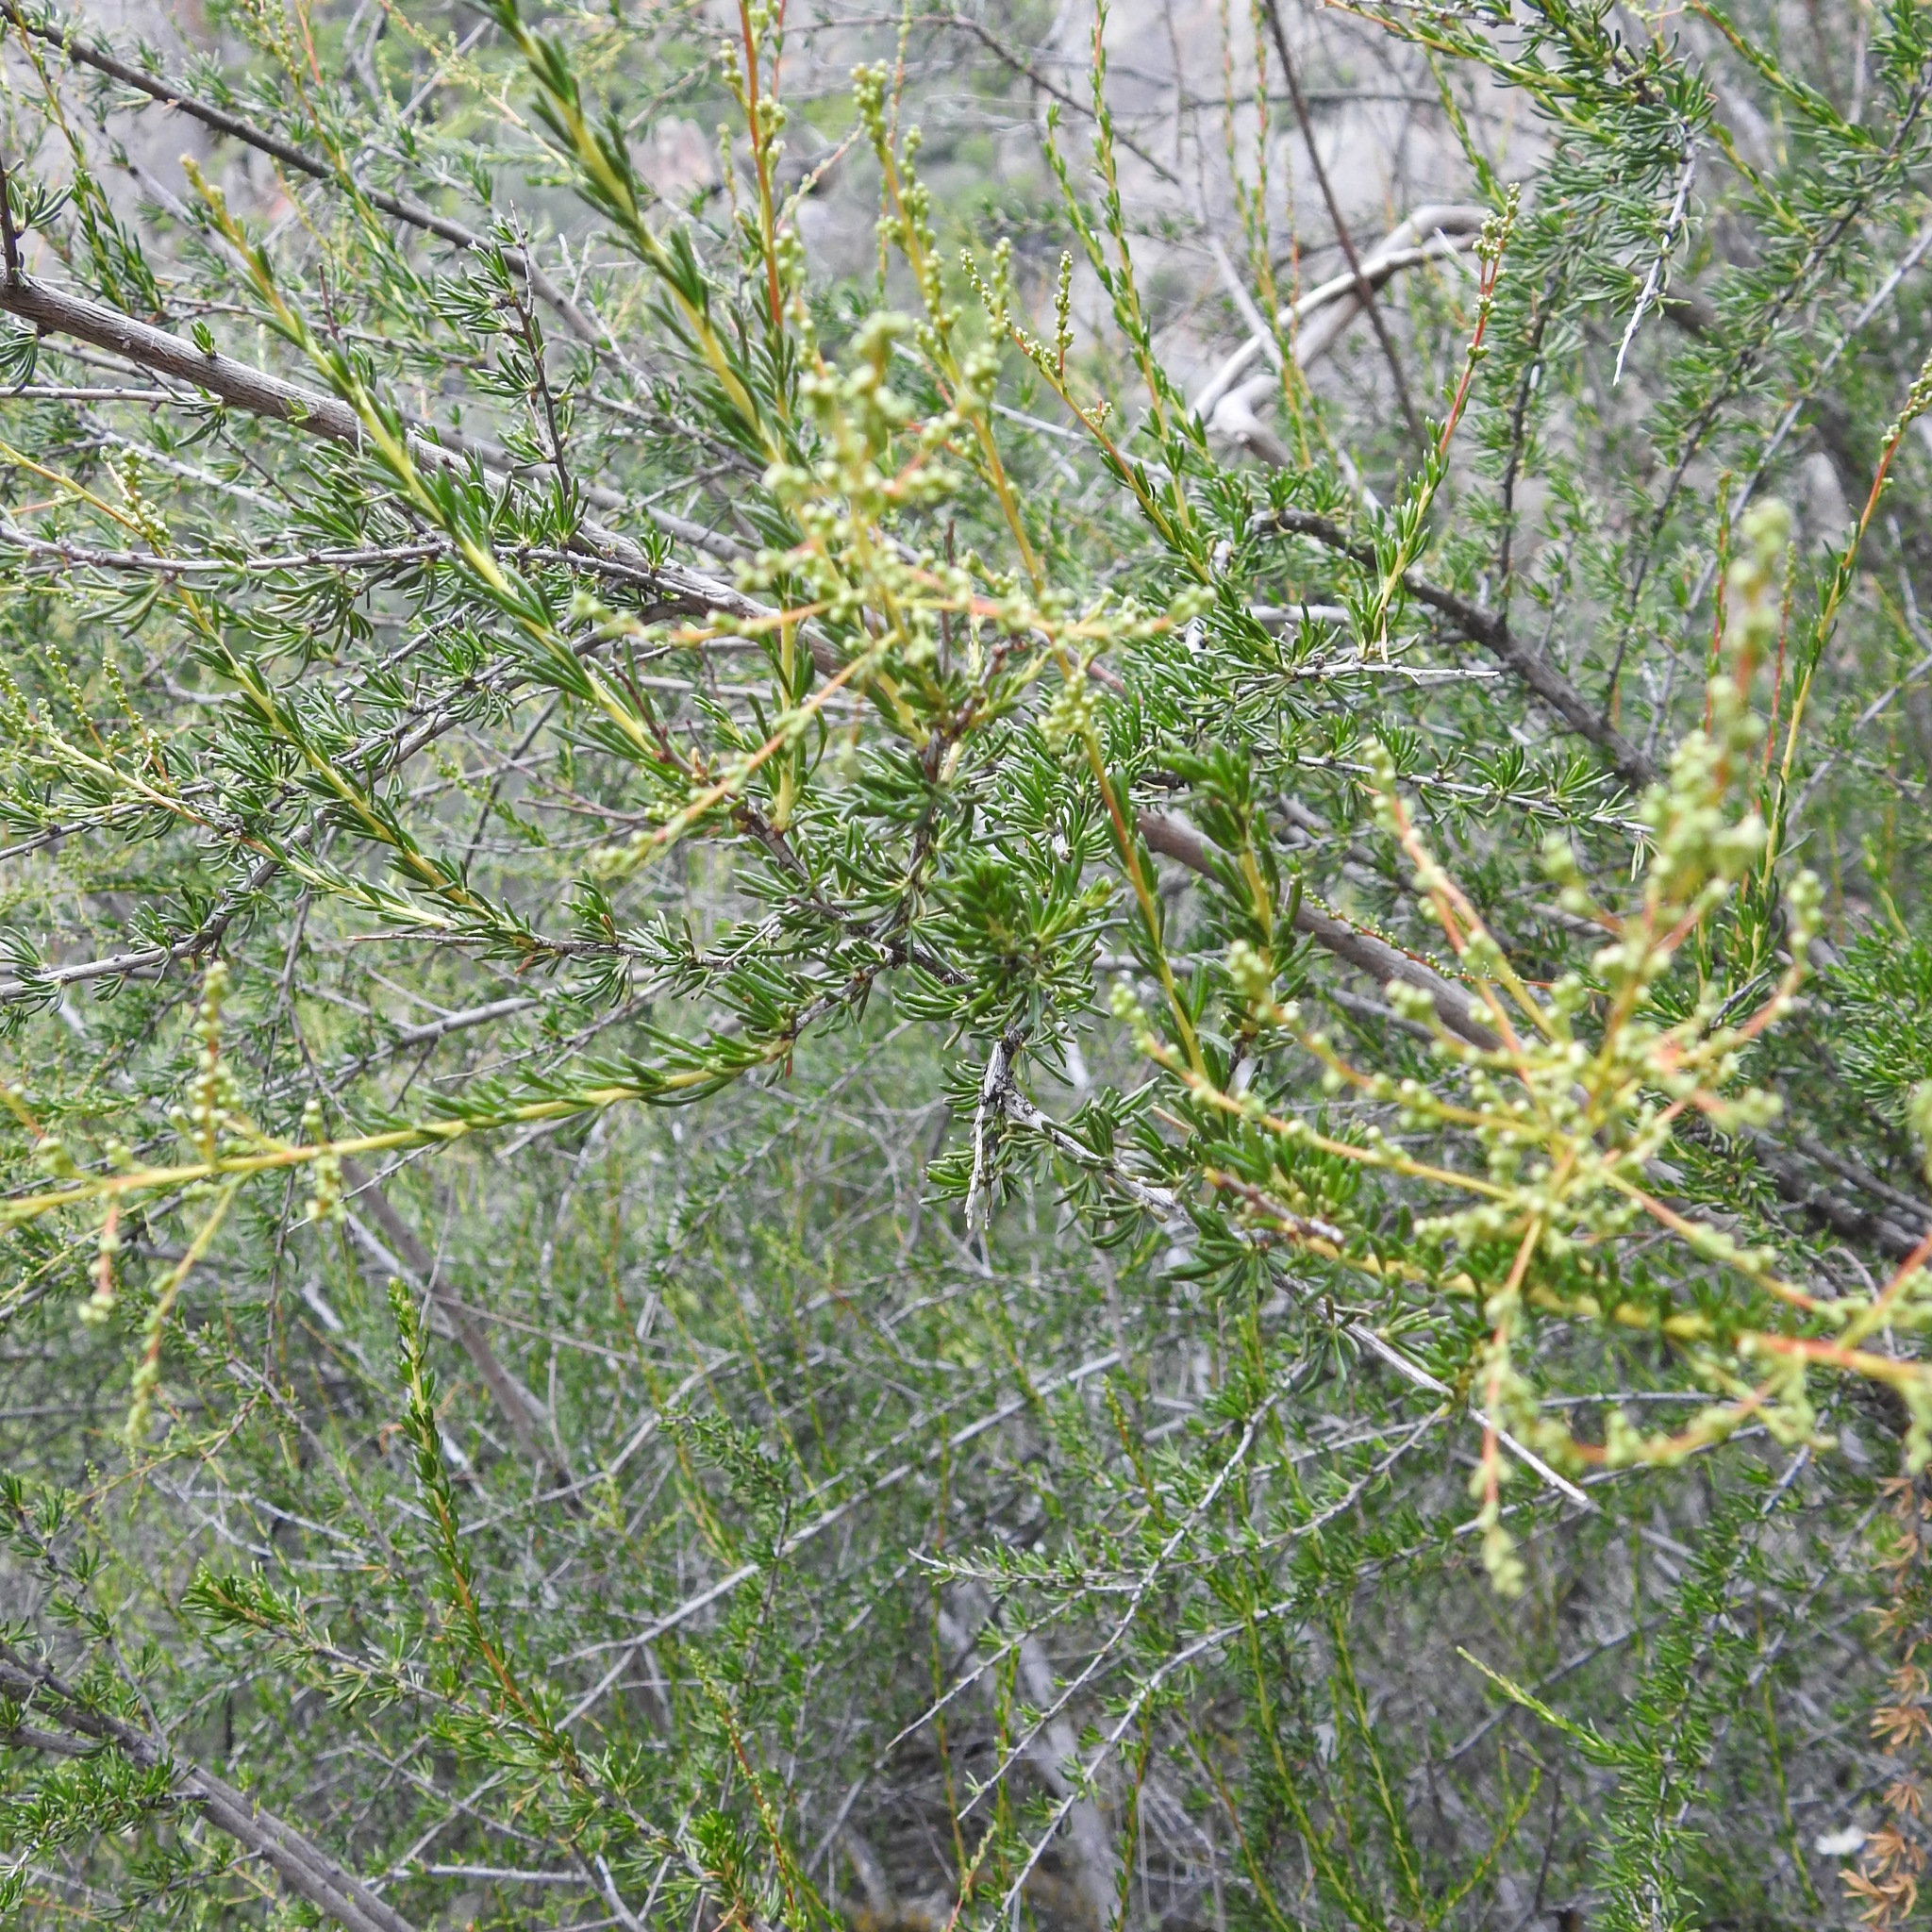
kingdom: Plantae
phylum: Tracheophyta
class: Magnoliopsida
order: Rosales
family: Rosaceae
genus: Adenostoma
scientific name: Adenostoma fasciculatum
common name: Chamise
